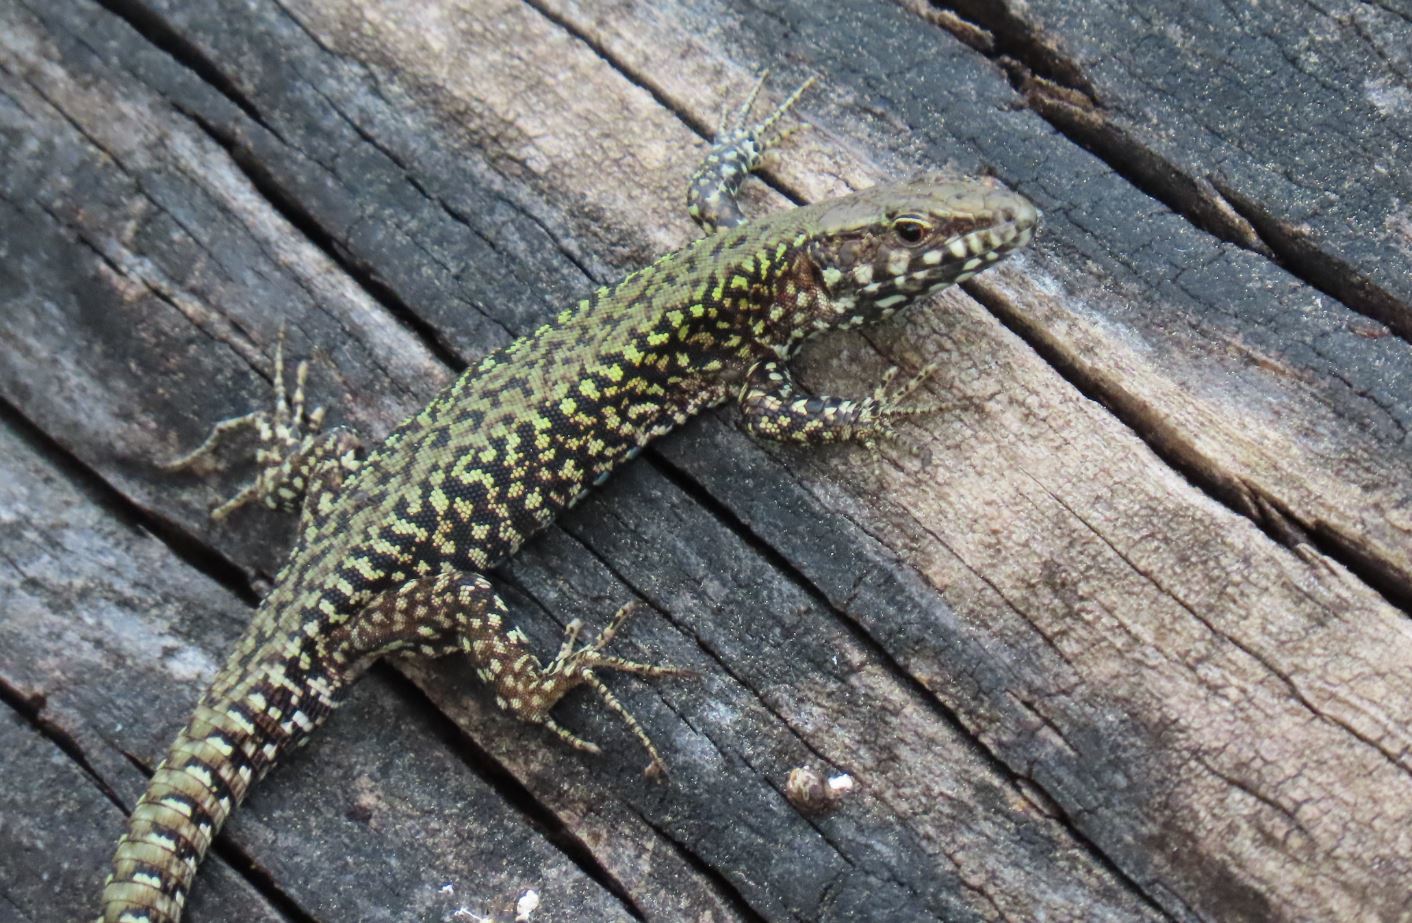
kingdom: Animalia
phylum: Chordata
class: Squamata
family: Lacertidae
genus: Podarcis
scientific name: Podarcis muralis
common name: Common wall lizard
